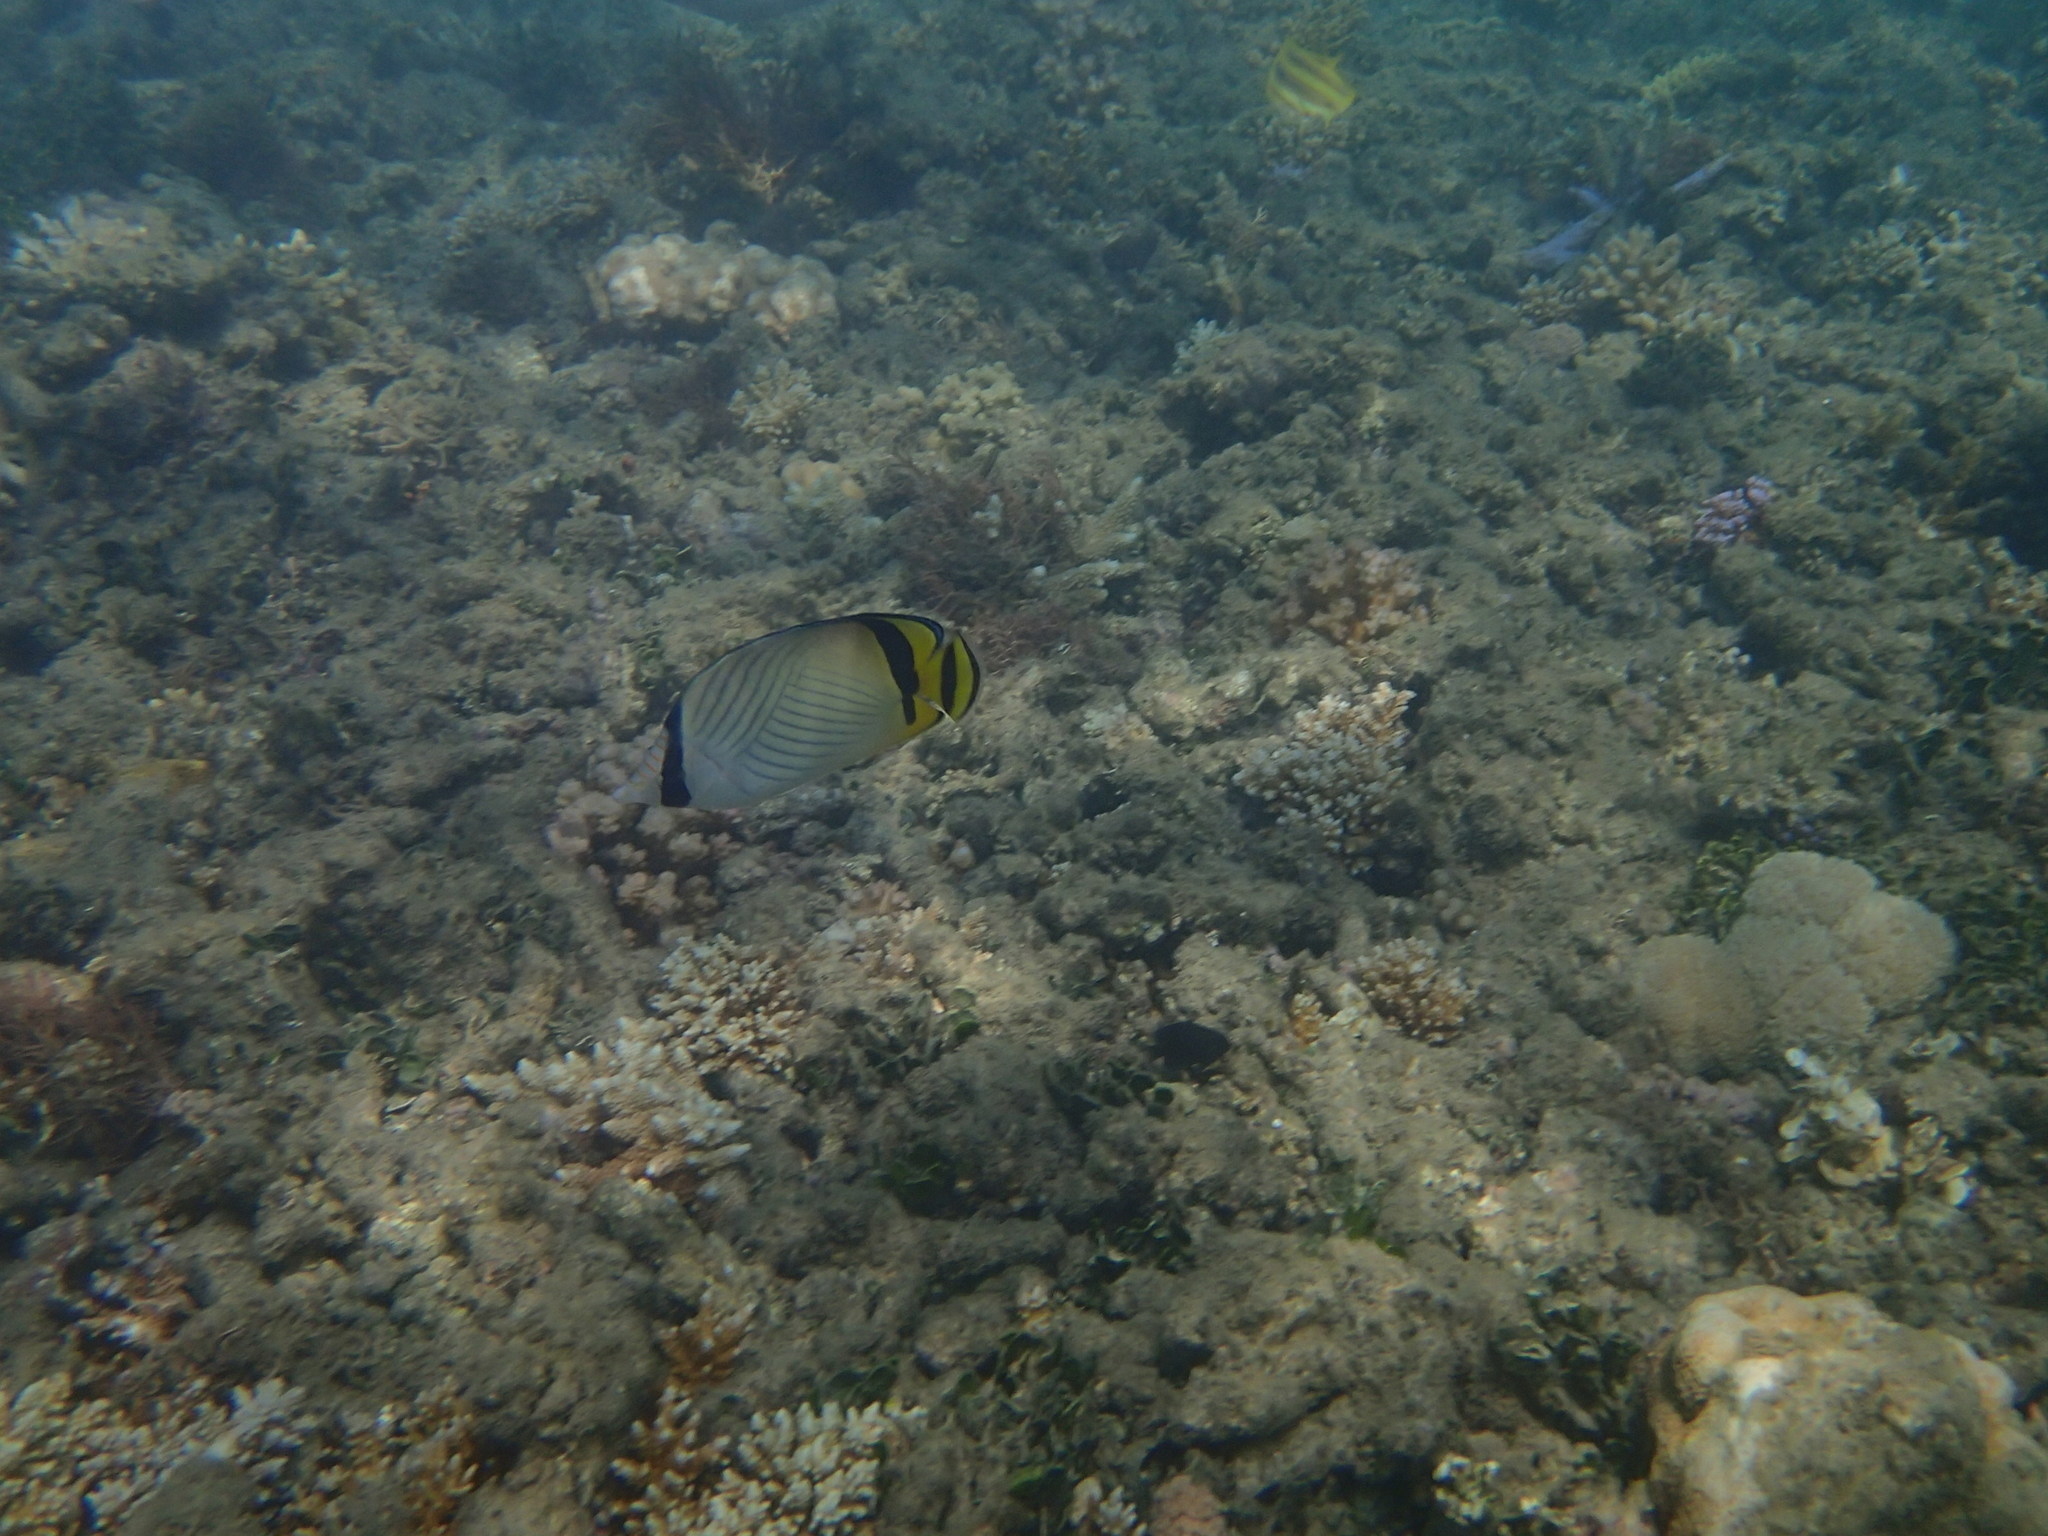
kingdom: Animalia
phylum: Chordata
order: Perciformes
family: Chaetodontidae
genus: Chaetodon
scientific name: Chaetodon vagabundus
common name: Vagabond butterflyfish
